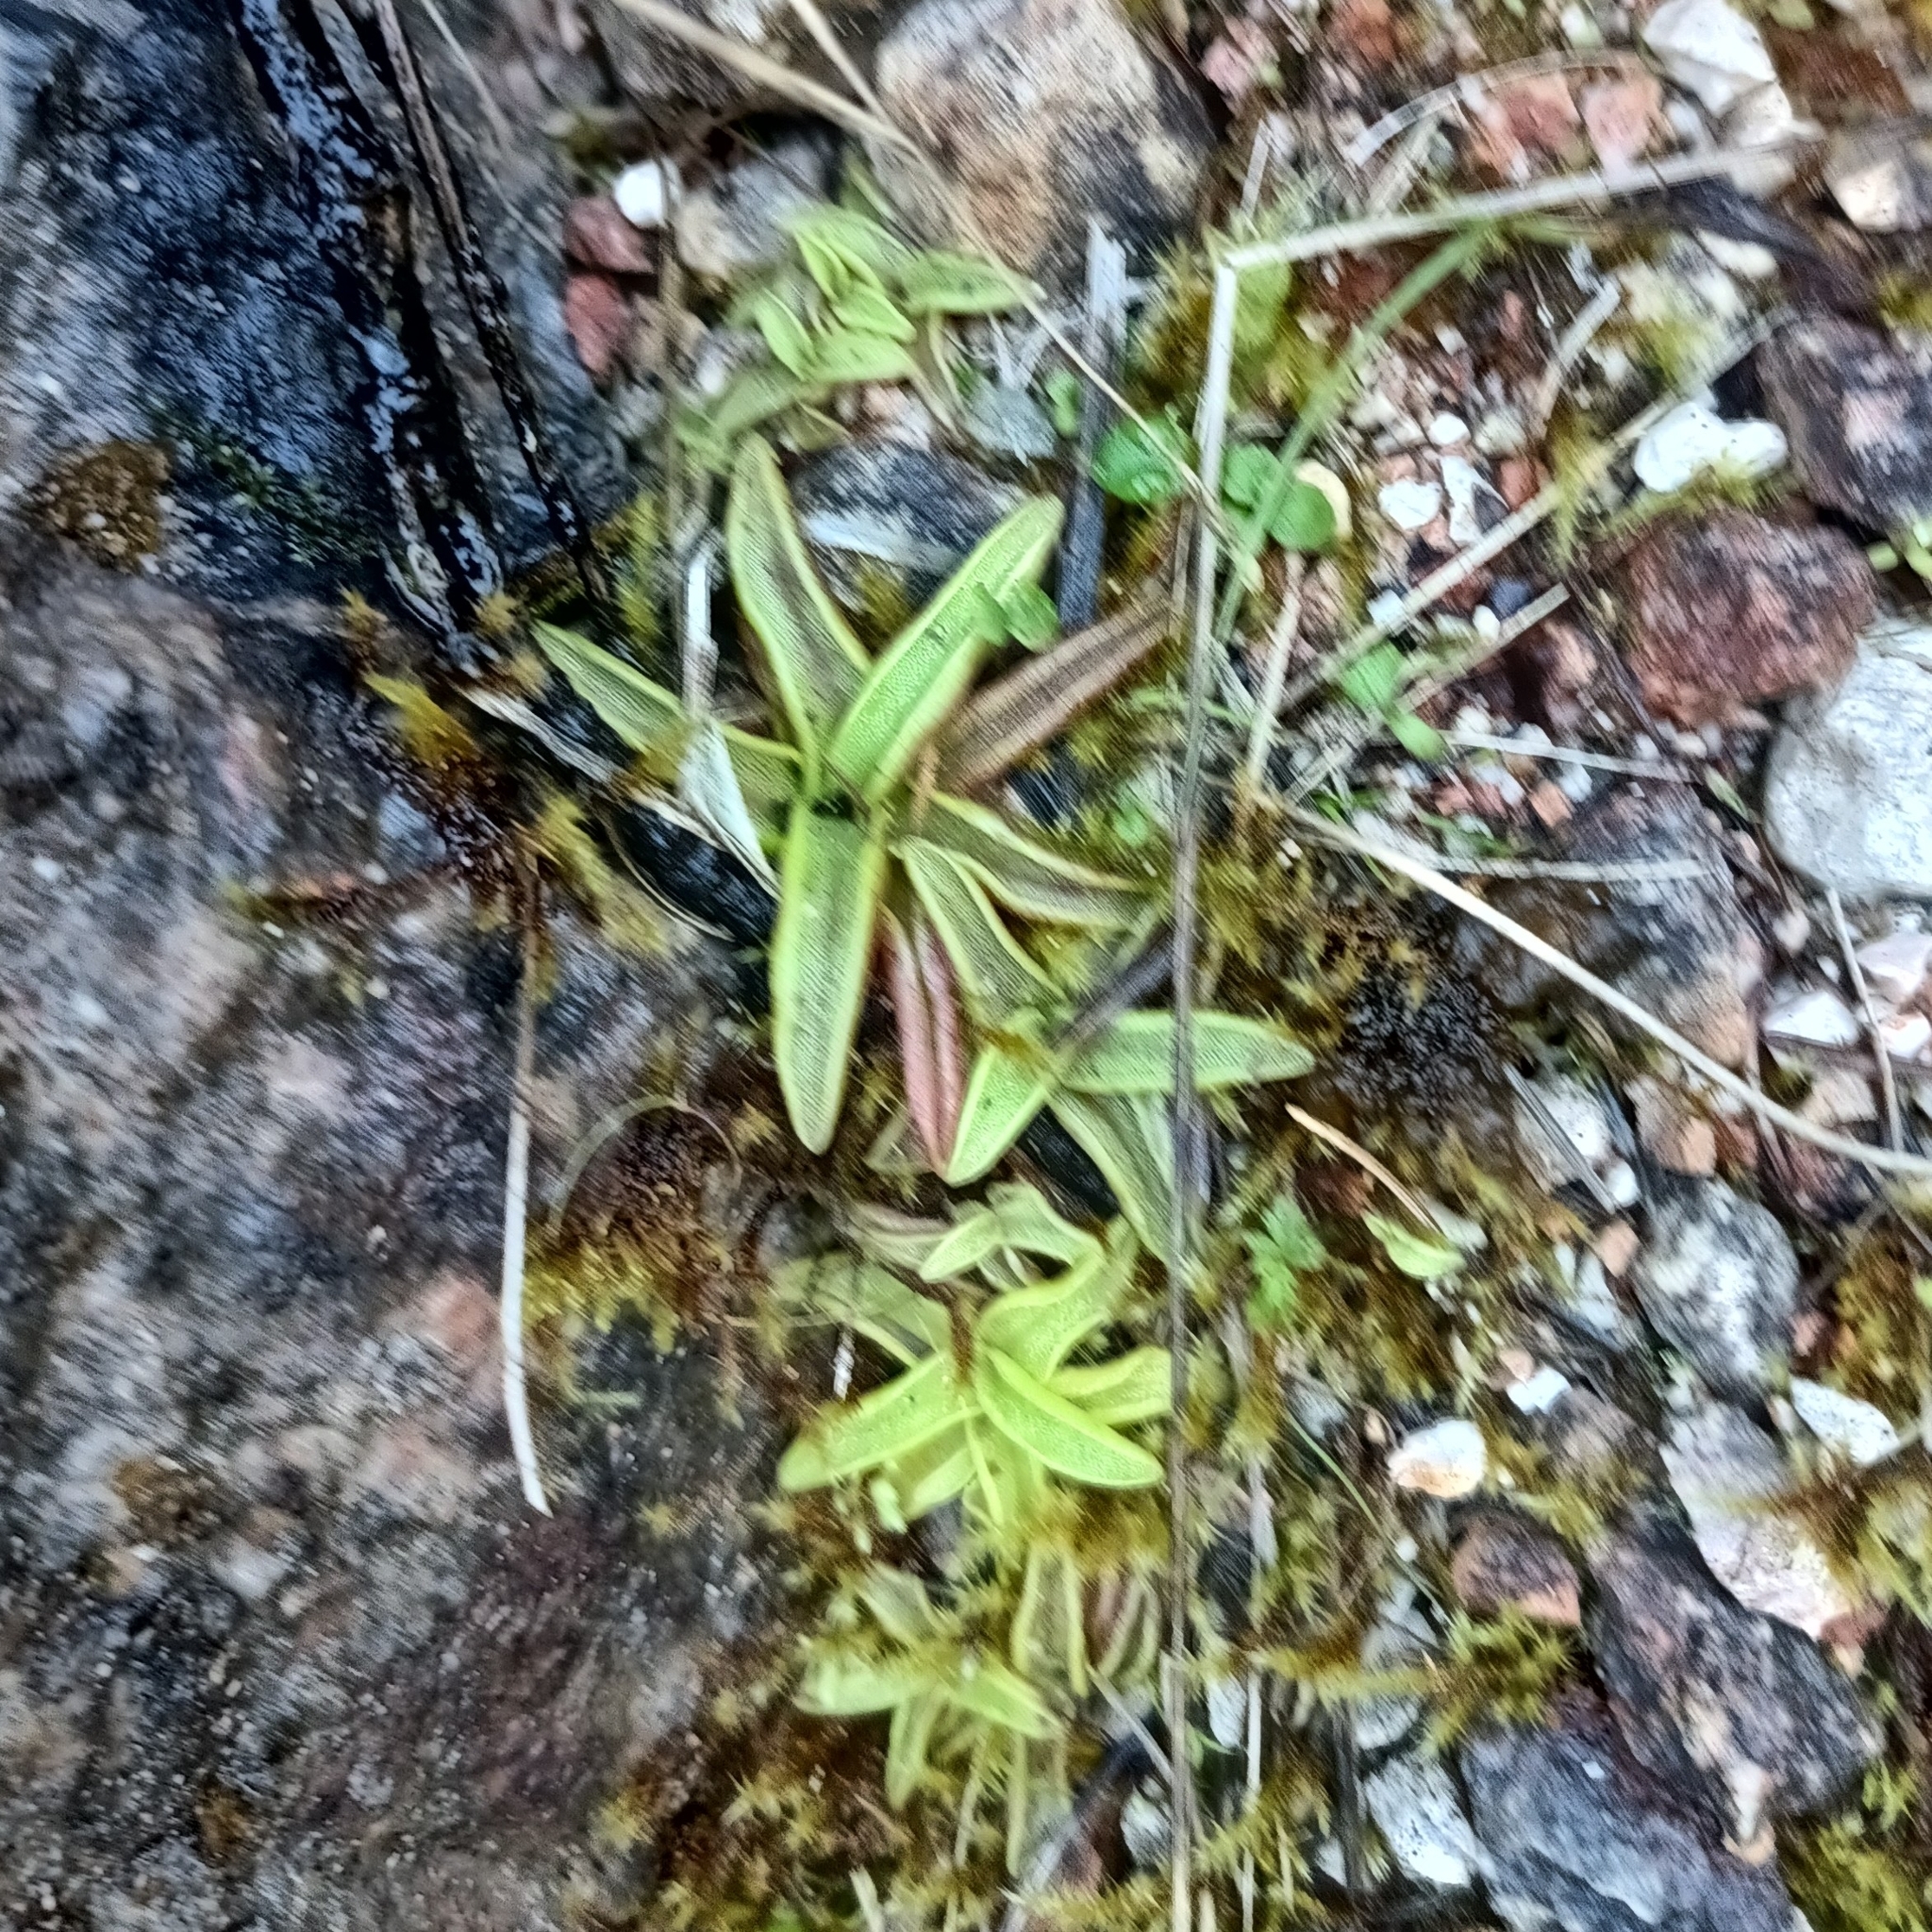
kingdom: Plantae
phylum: Tracheophyta
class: Magnoliopsida
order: Lamiales
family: Lentibulariaceae
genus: Pinguicula
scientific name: Pinguicula alpina
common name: Alpine butterwort
